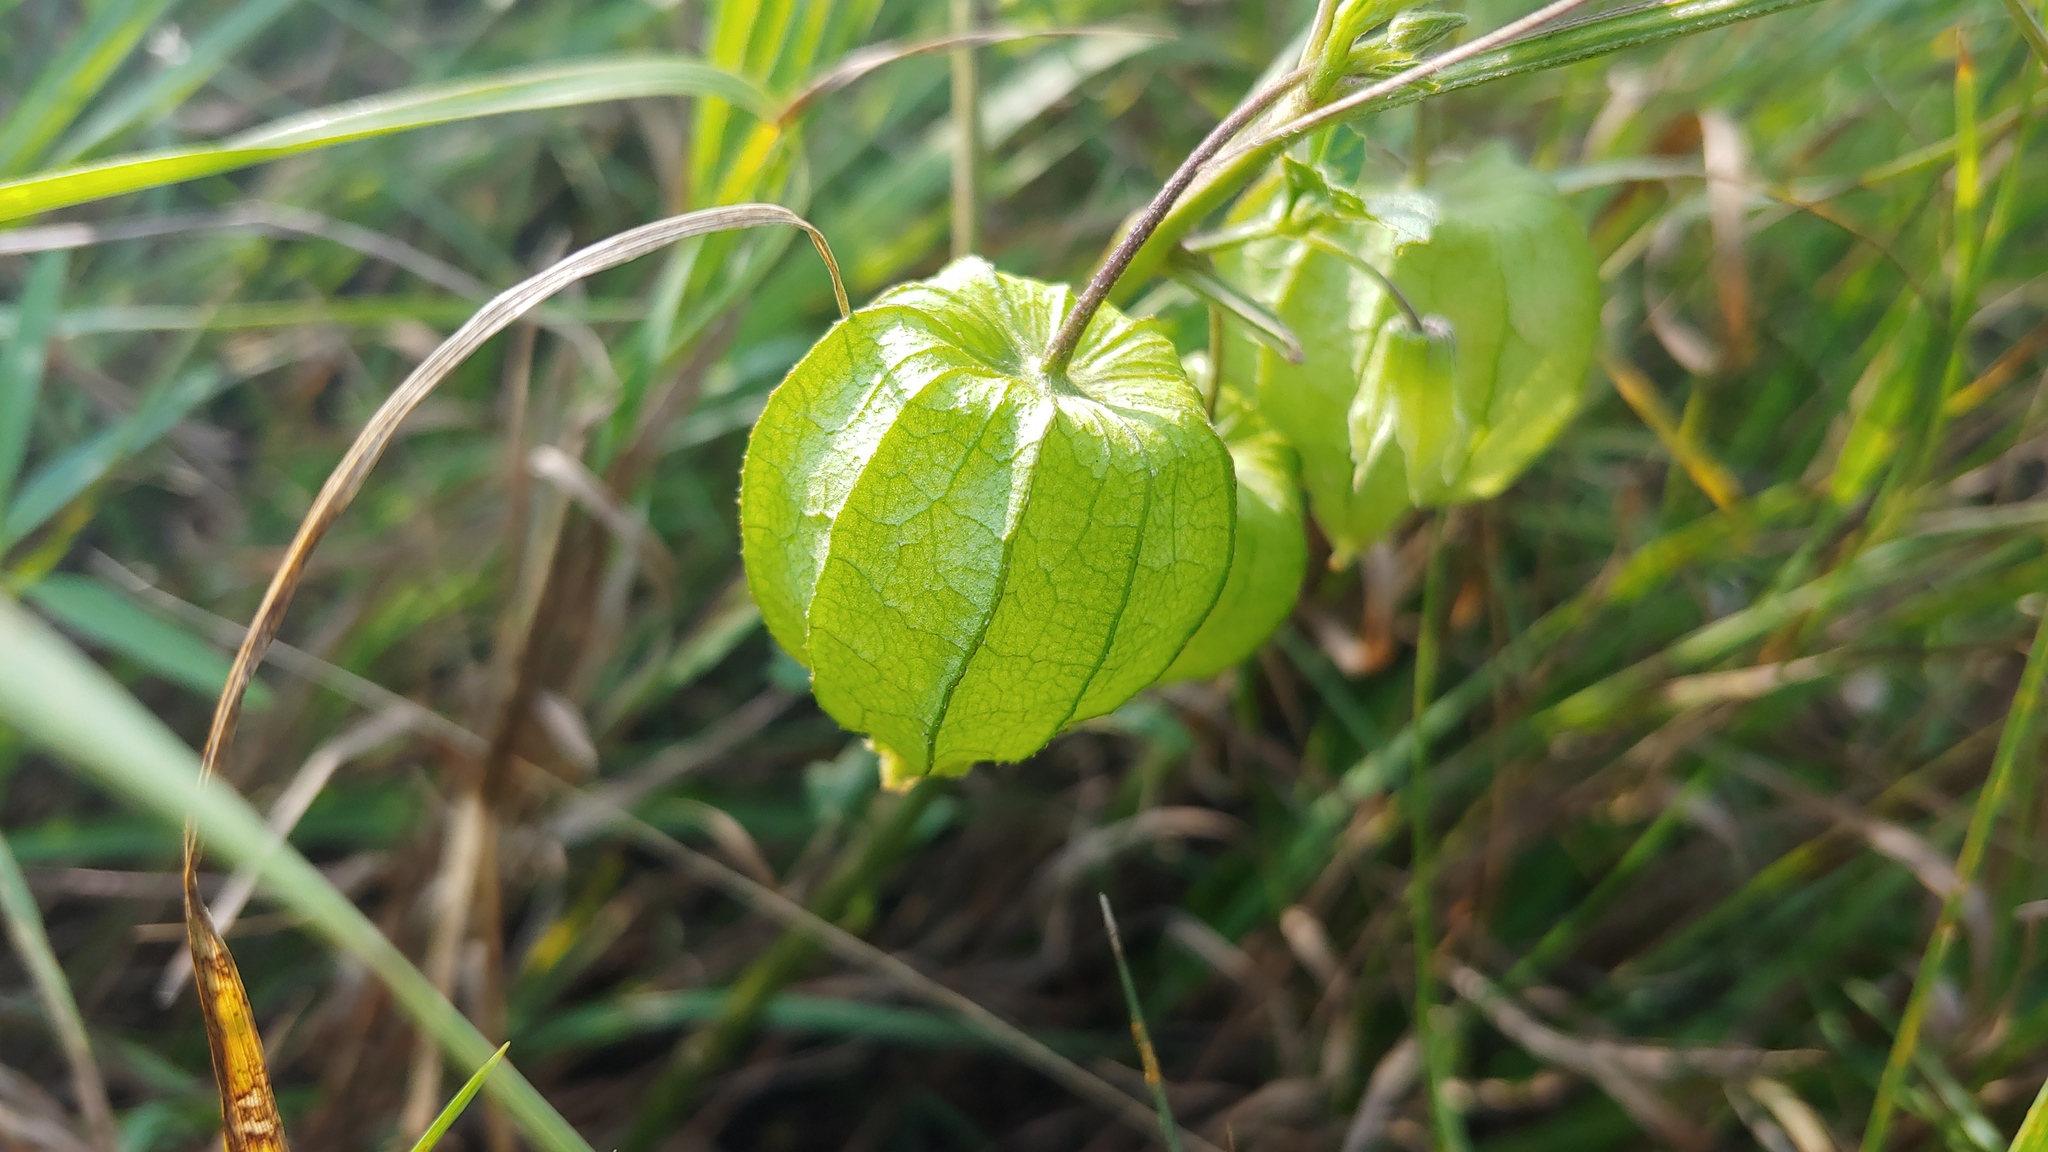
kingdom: Plantae
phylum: Tracheophyta
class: Magnoliopsida
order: Solanales
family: Solanaceae
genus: Physalis
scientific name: Physalis longifolia
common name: Common ground-cherry
